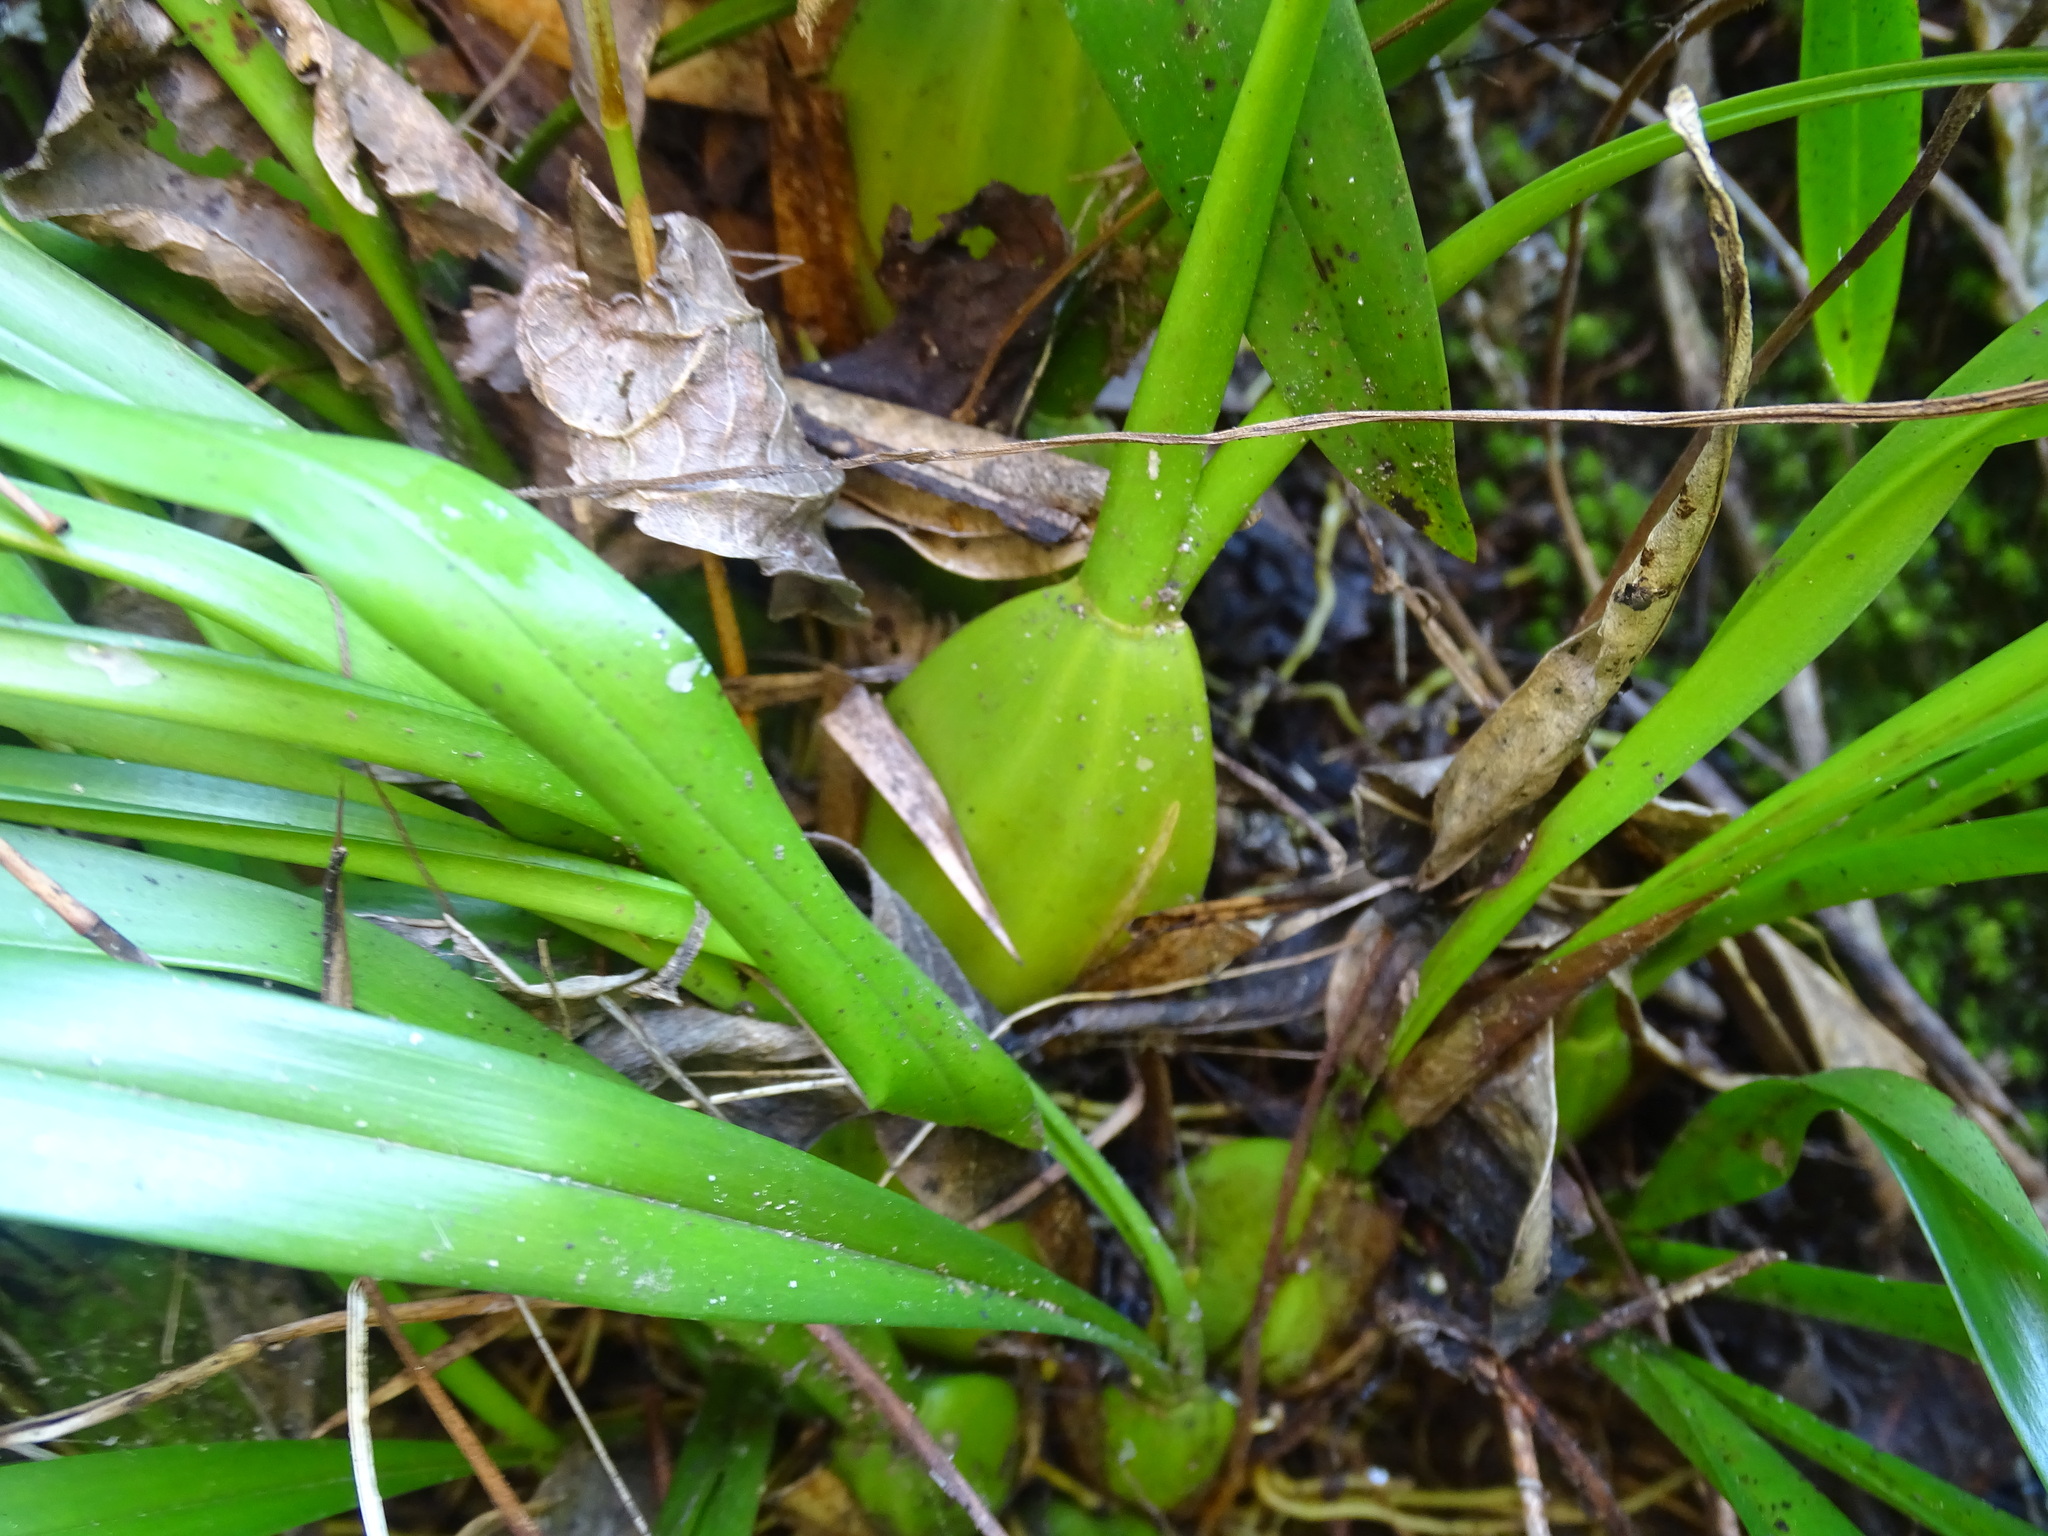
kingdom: Plantae
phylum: Tracheophyta
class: Liliopsida
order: Asparagales
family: Orchidaceae
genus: Maxillaria
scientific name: Maxillaria egertoniana
